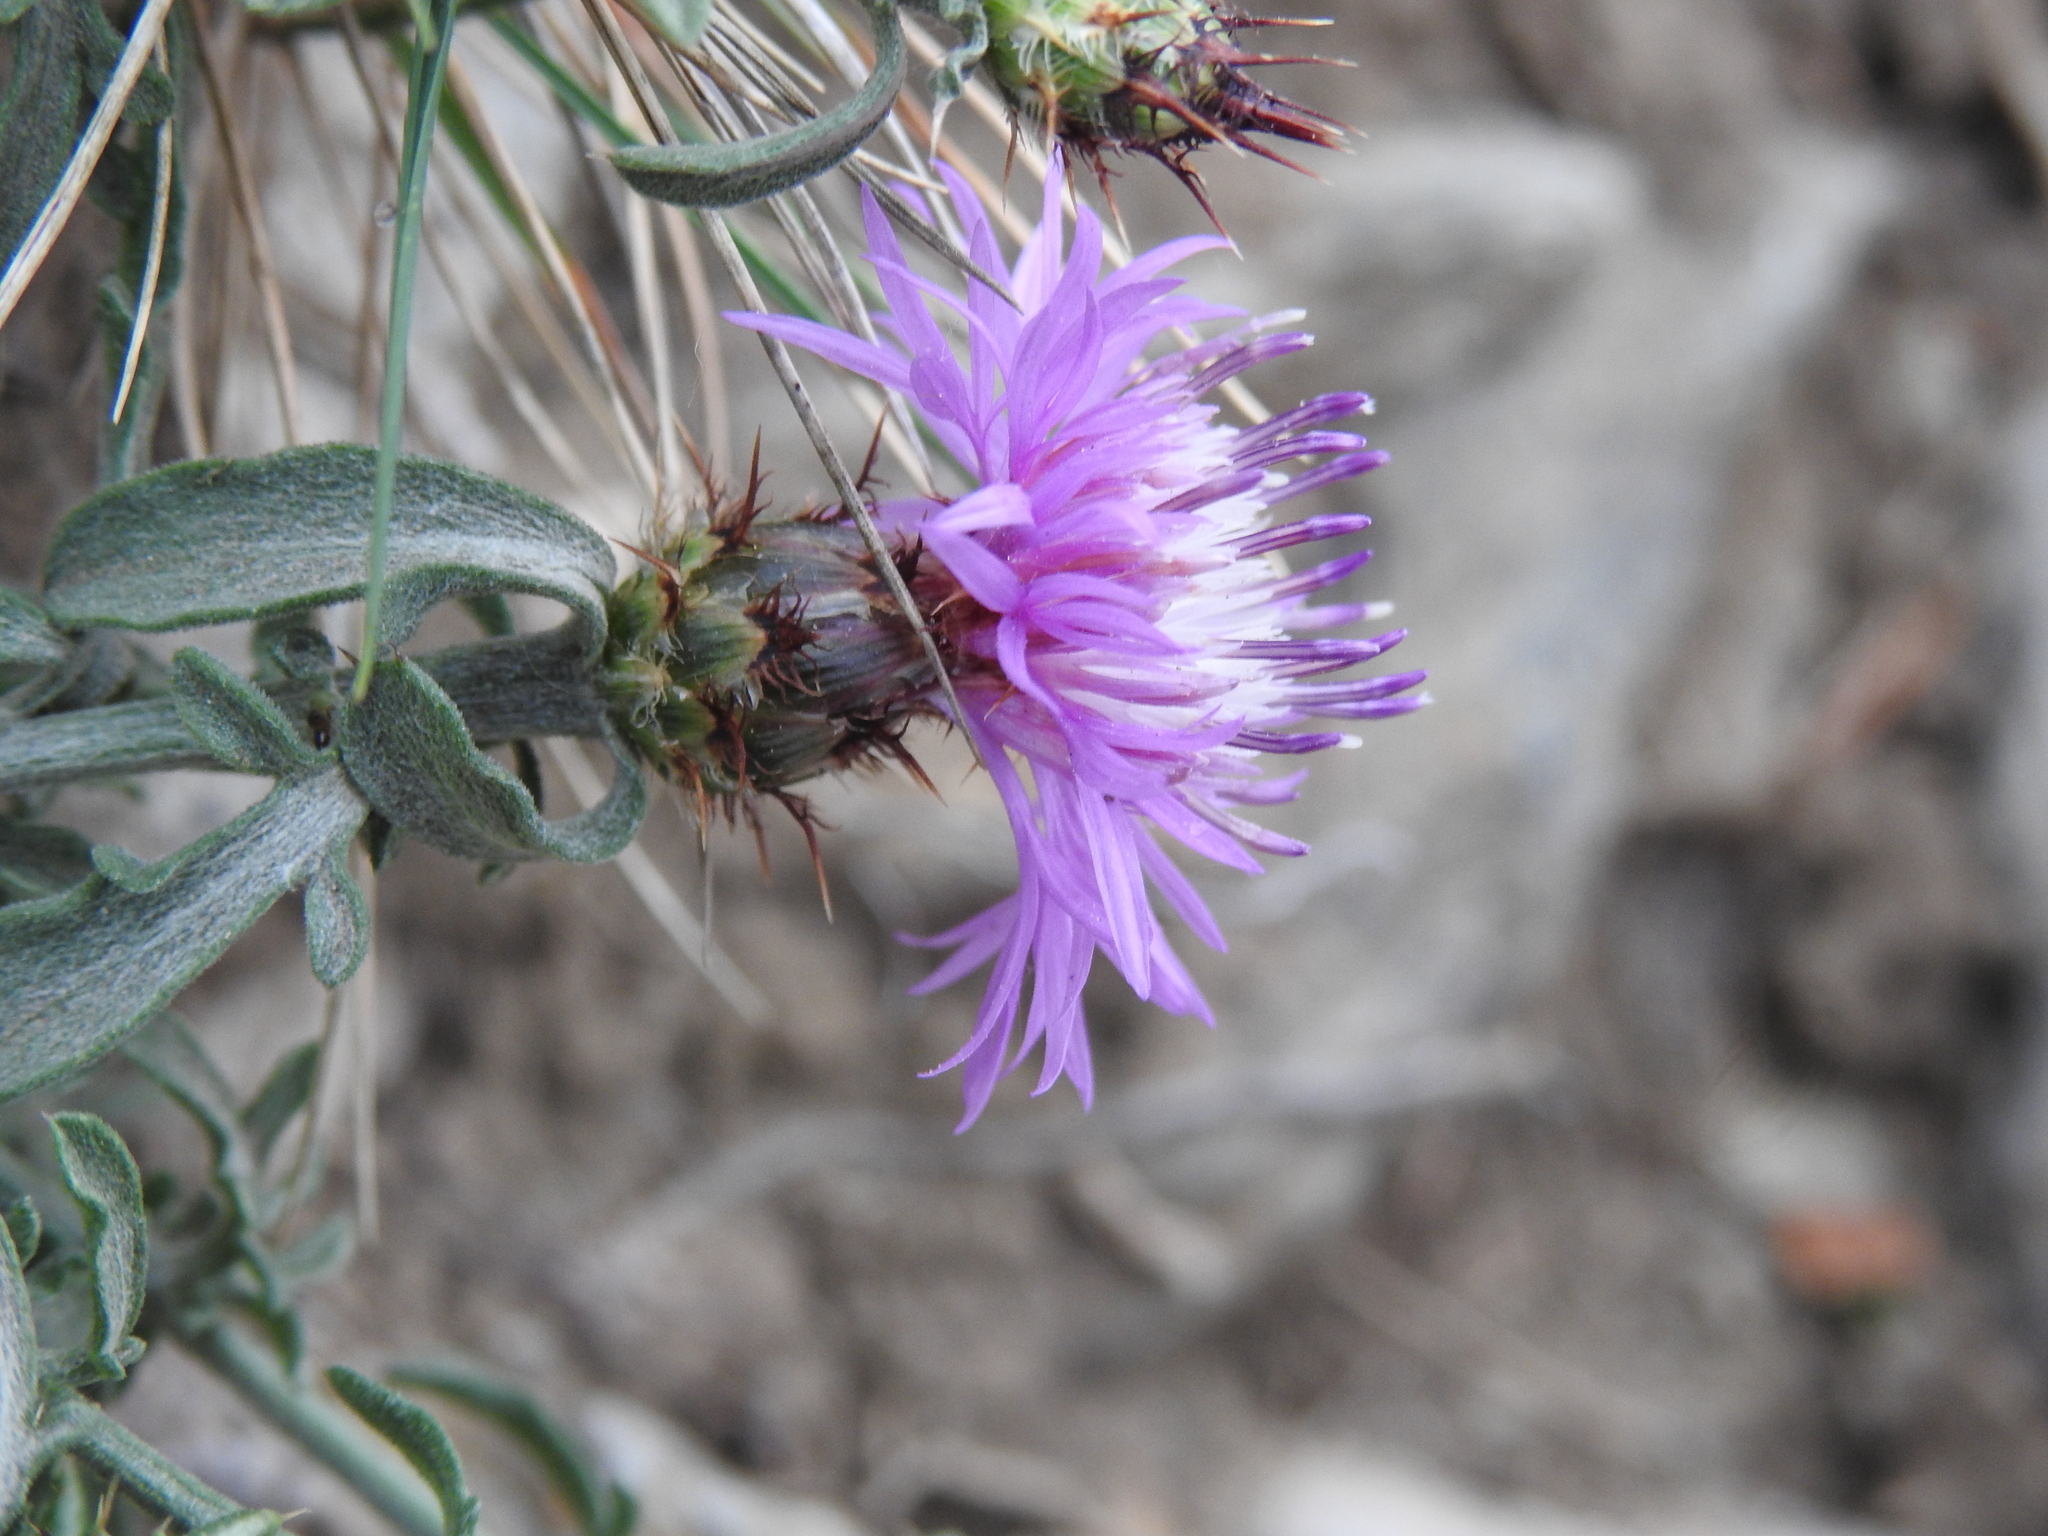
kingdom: Plantae
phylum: Tracheophyta
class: Magnoliopsida
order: Asterales
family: Asteraceae
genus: Centaurea
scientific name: Centaurea hanryi
